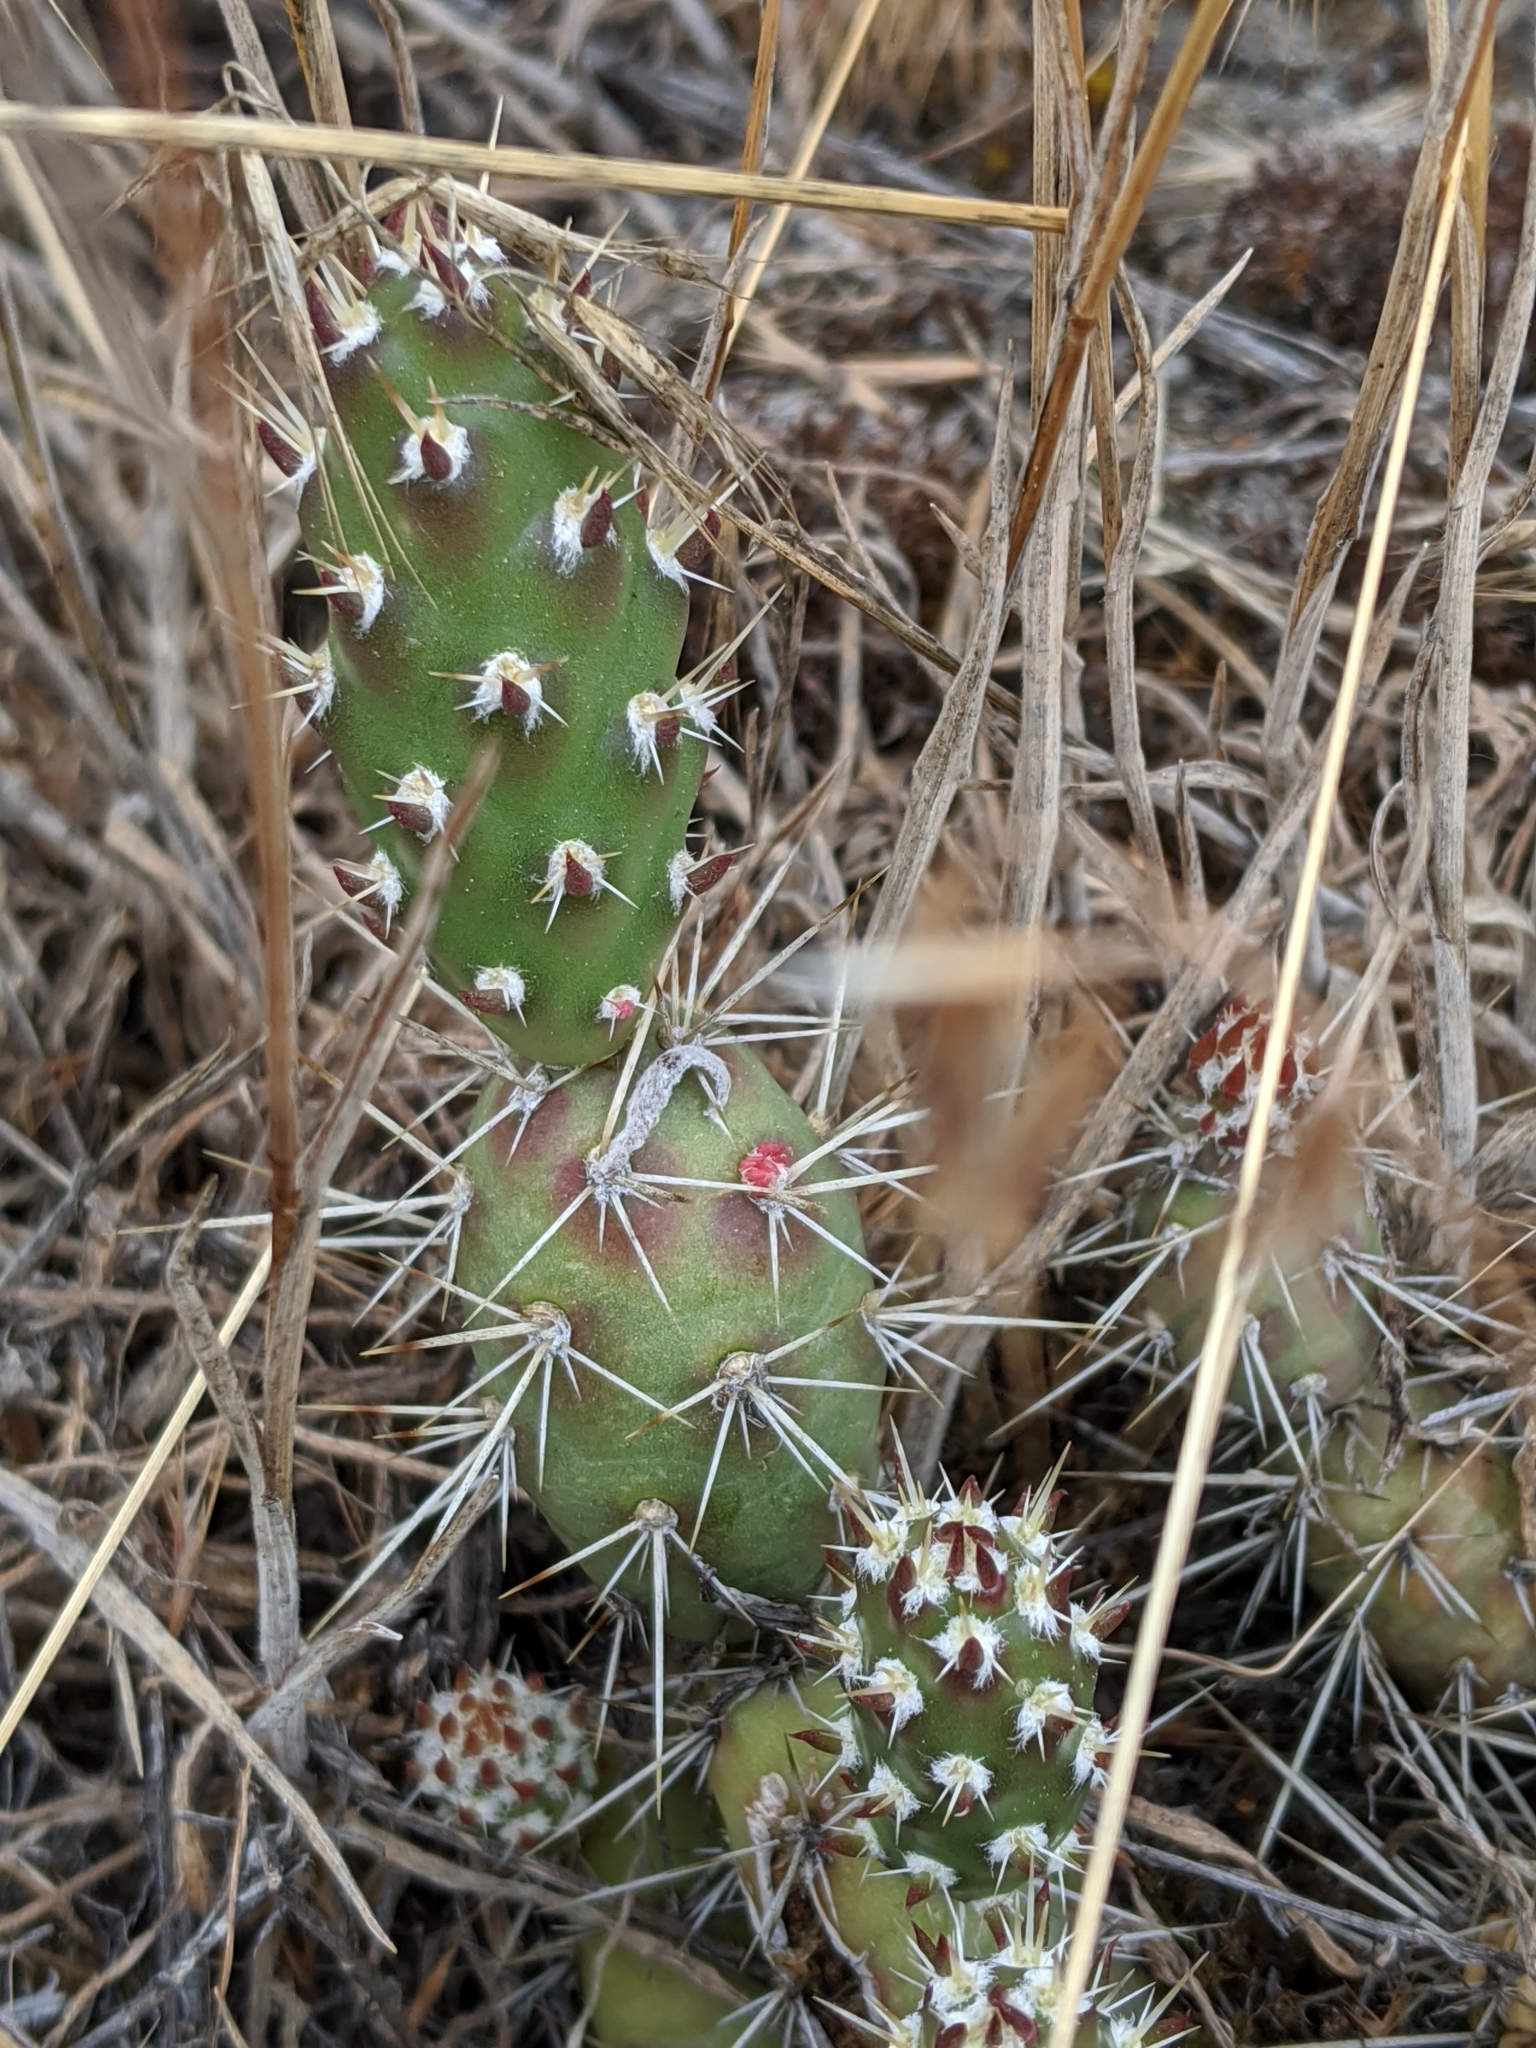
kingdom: Plantae
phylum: Tracheophyta
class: Magnoliopsida
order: Caryophyllales
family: Cactaceae
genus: Opuntia
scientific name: Opuntia fragilis
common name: Brittle cactus
